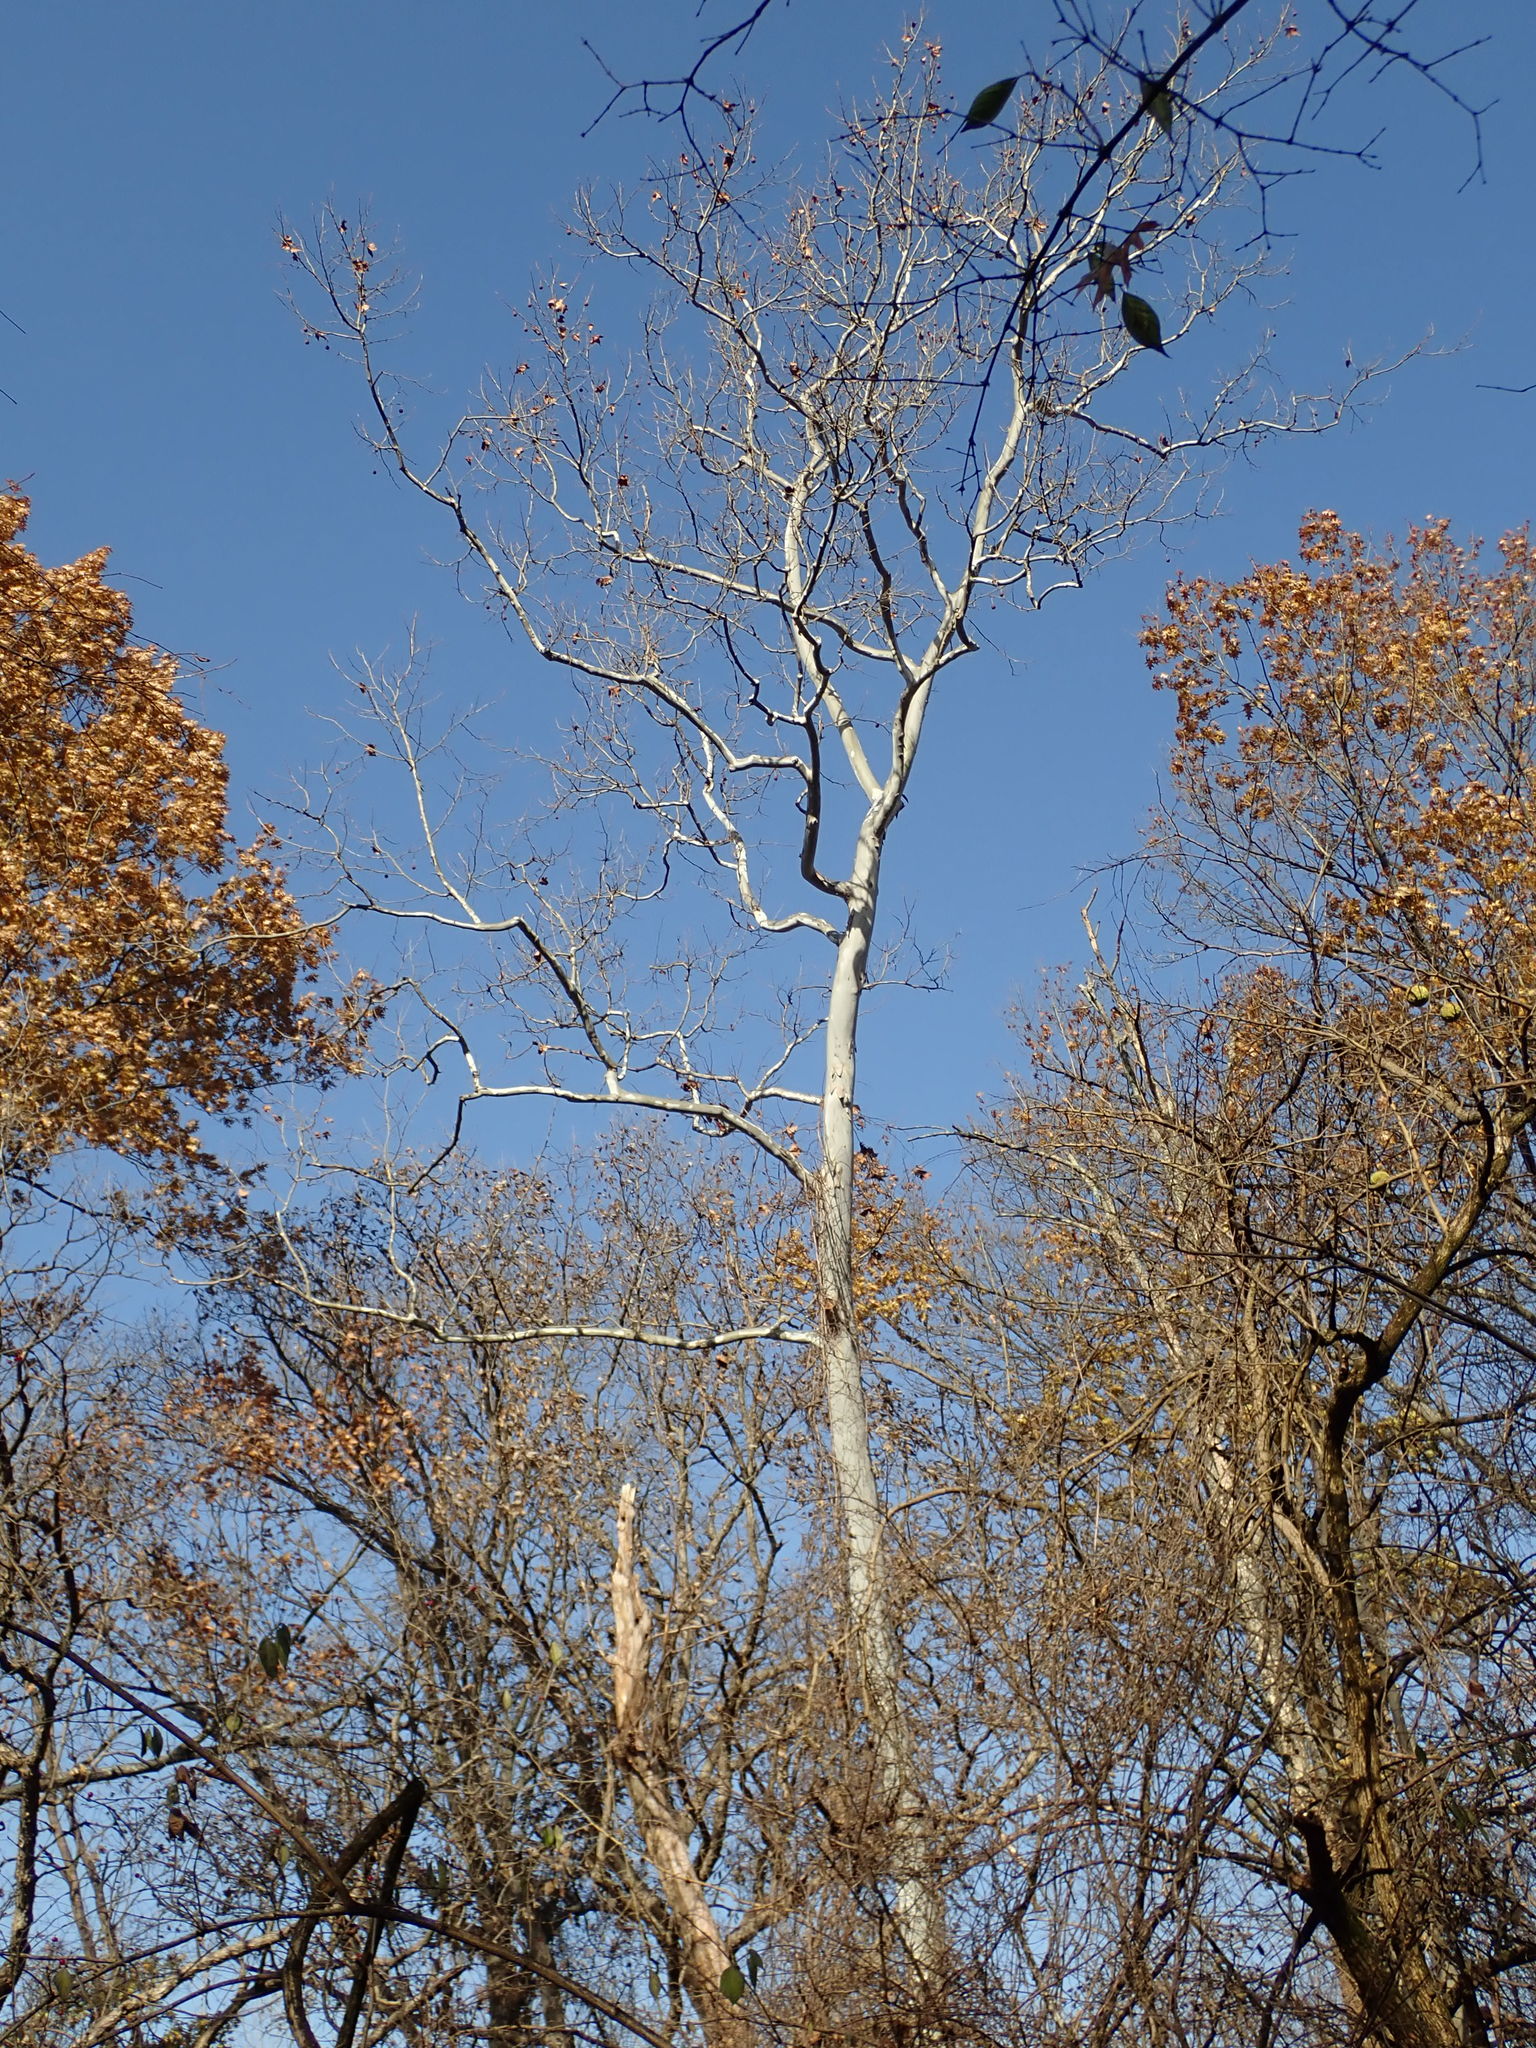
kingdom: Plantae
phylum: Tracheophyta
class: Magnoliopsida
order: Proteales
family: Platanaceae
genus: Platanus
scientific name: Platanus occidentalis
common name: American sycamore
